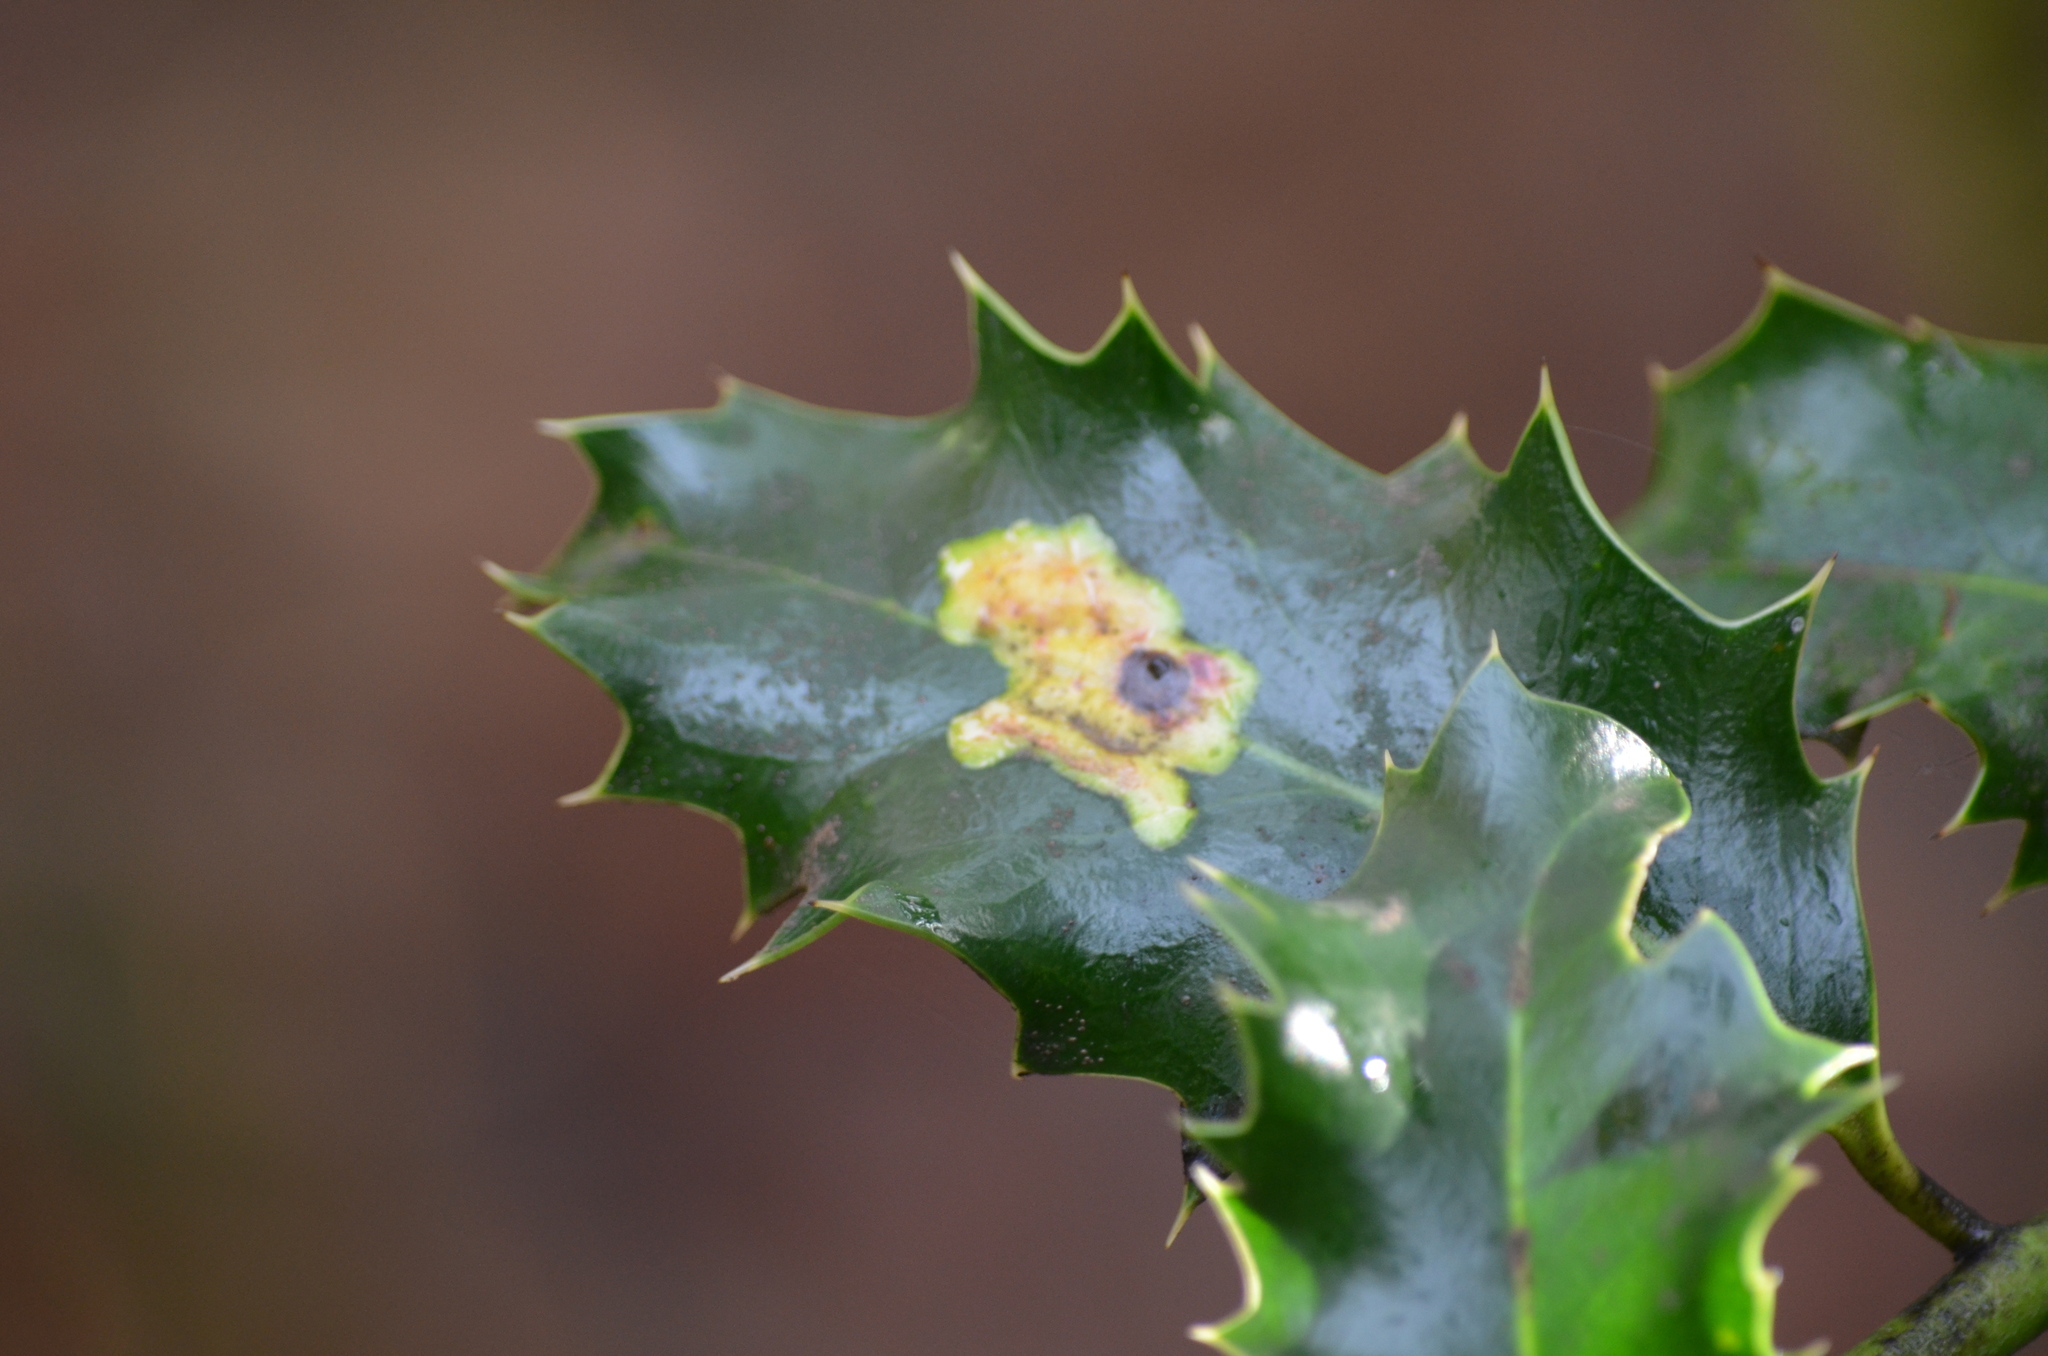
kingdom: Animalia
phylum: Arthropoda
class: Insecta
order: Diptera
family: Agromyzidae
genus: Phytomyza
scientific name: Phytomyza ilicis
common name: Holly leafminer
